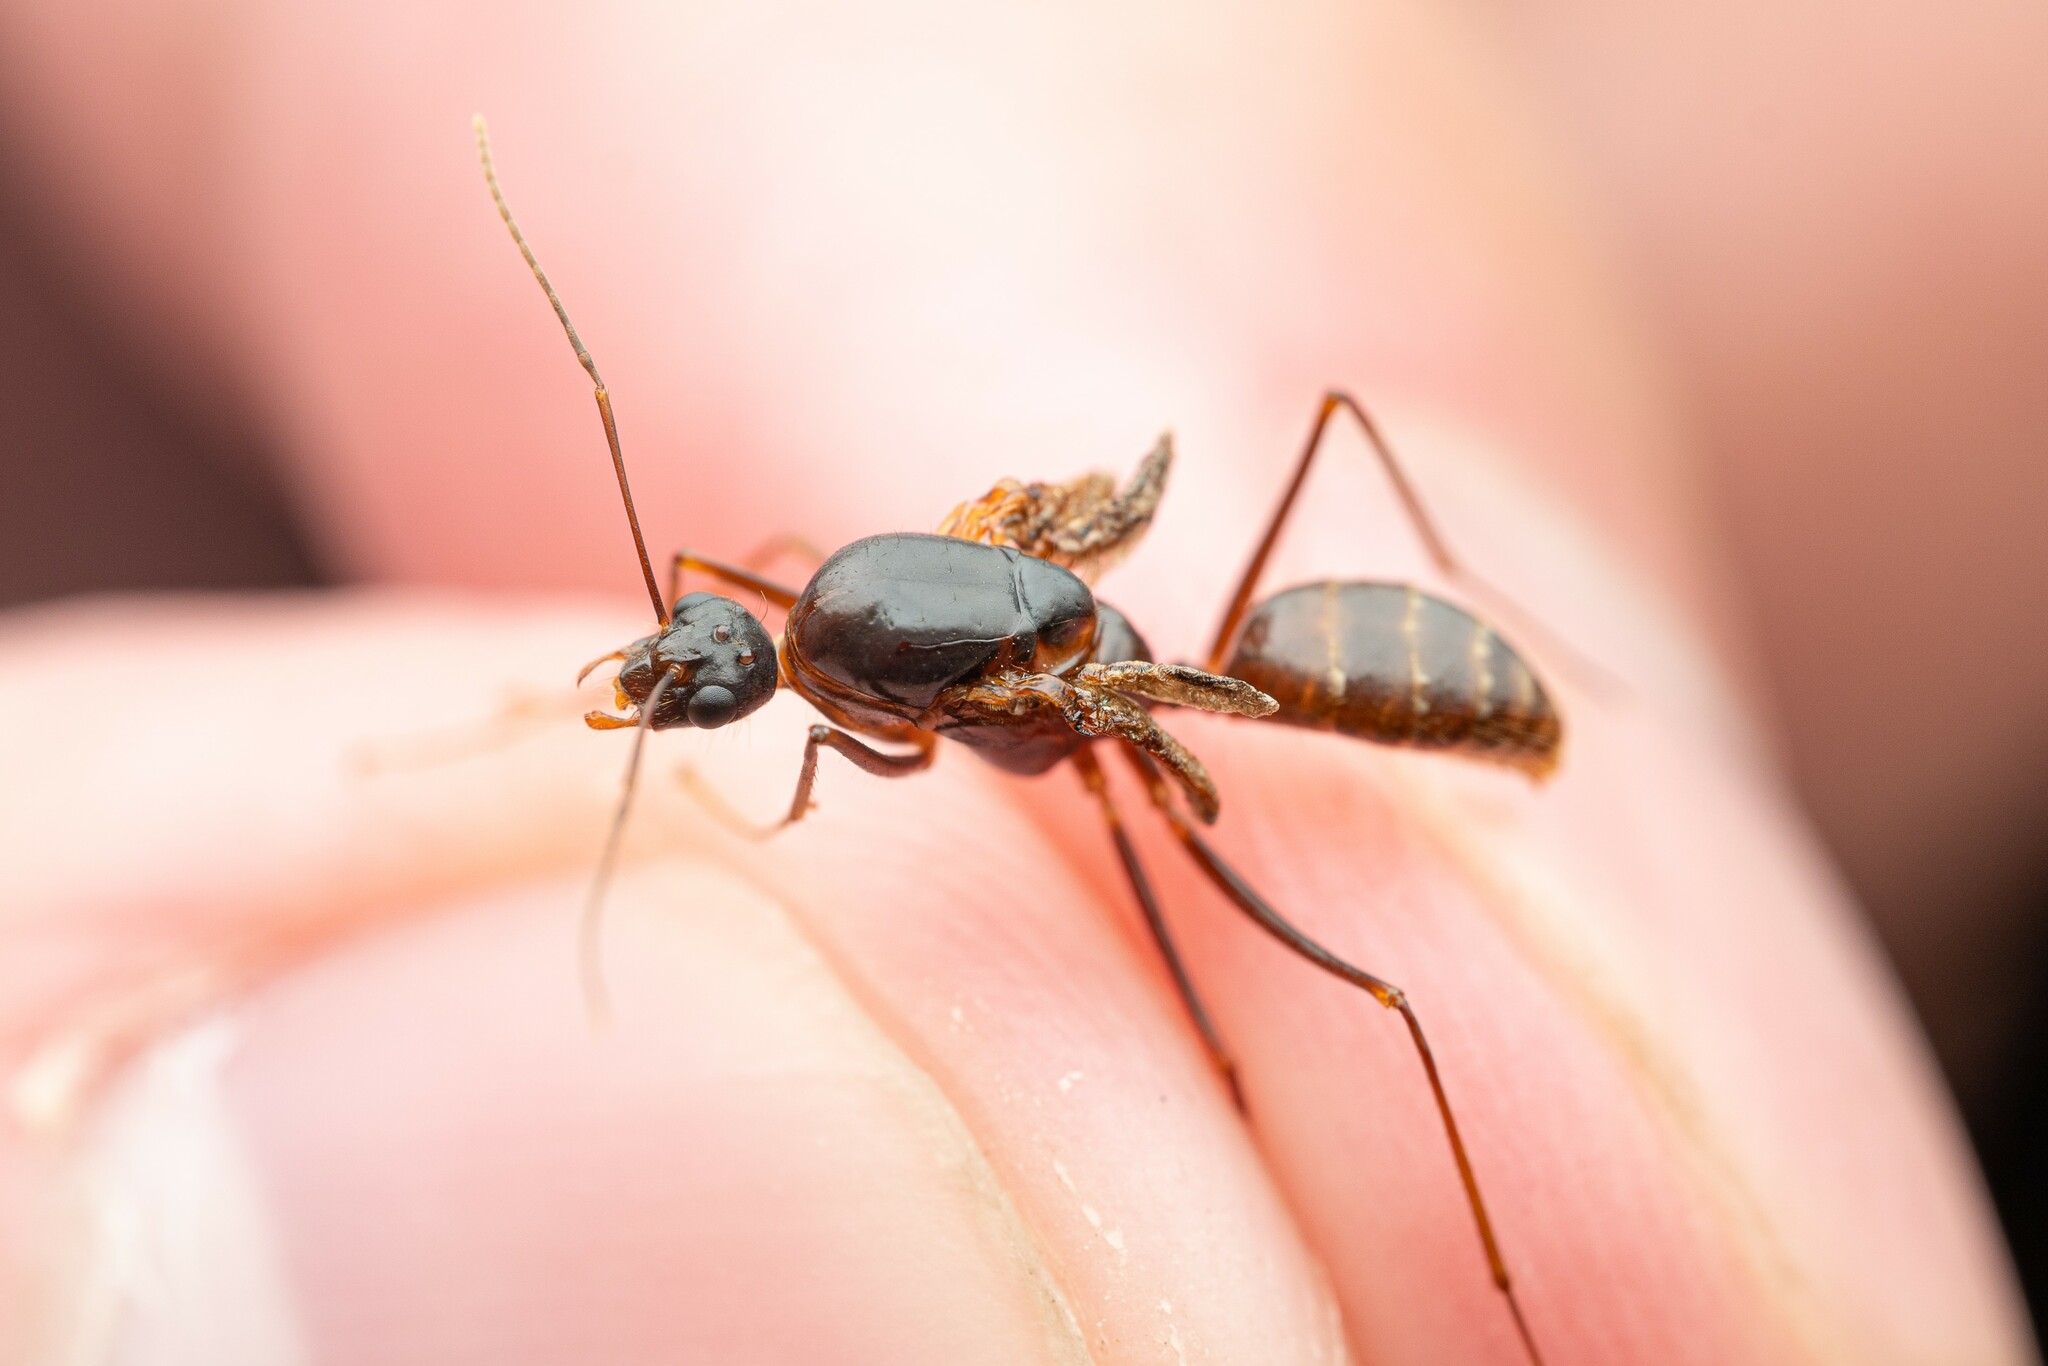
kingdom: Animalia
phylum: Arthropoda
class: Insecta
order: Hymenoptera
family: Formicidae
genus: Camponotus
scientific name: Camponotus ocreatus
